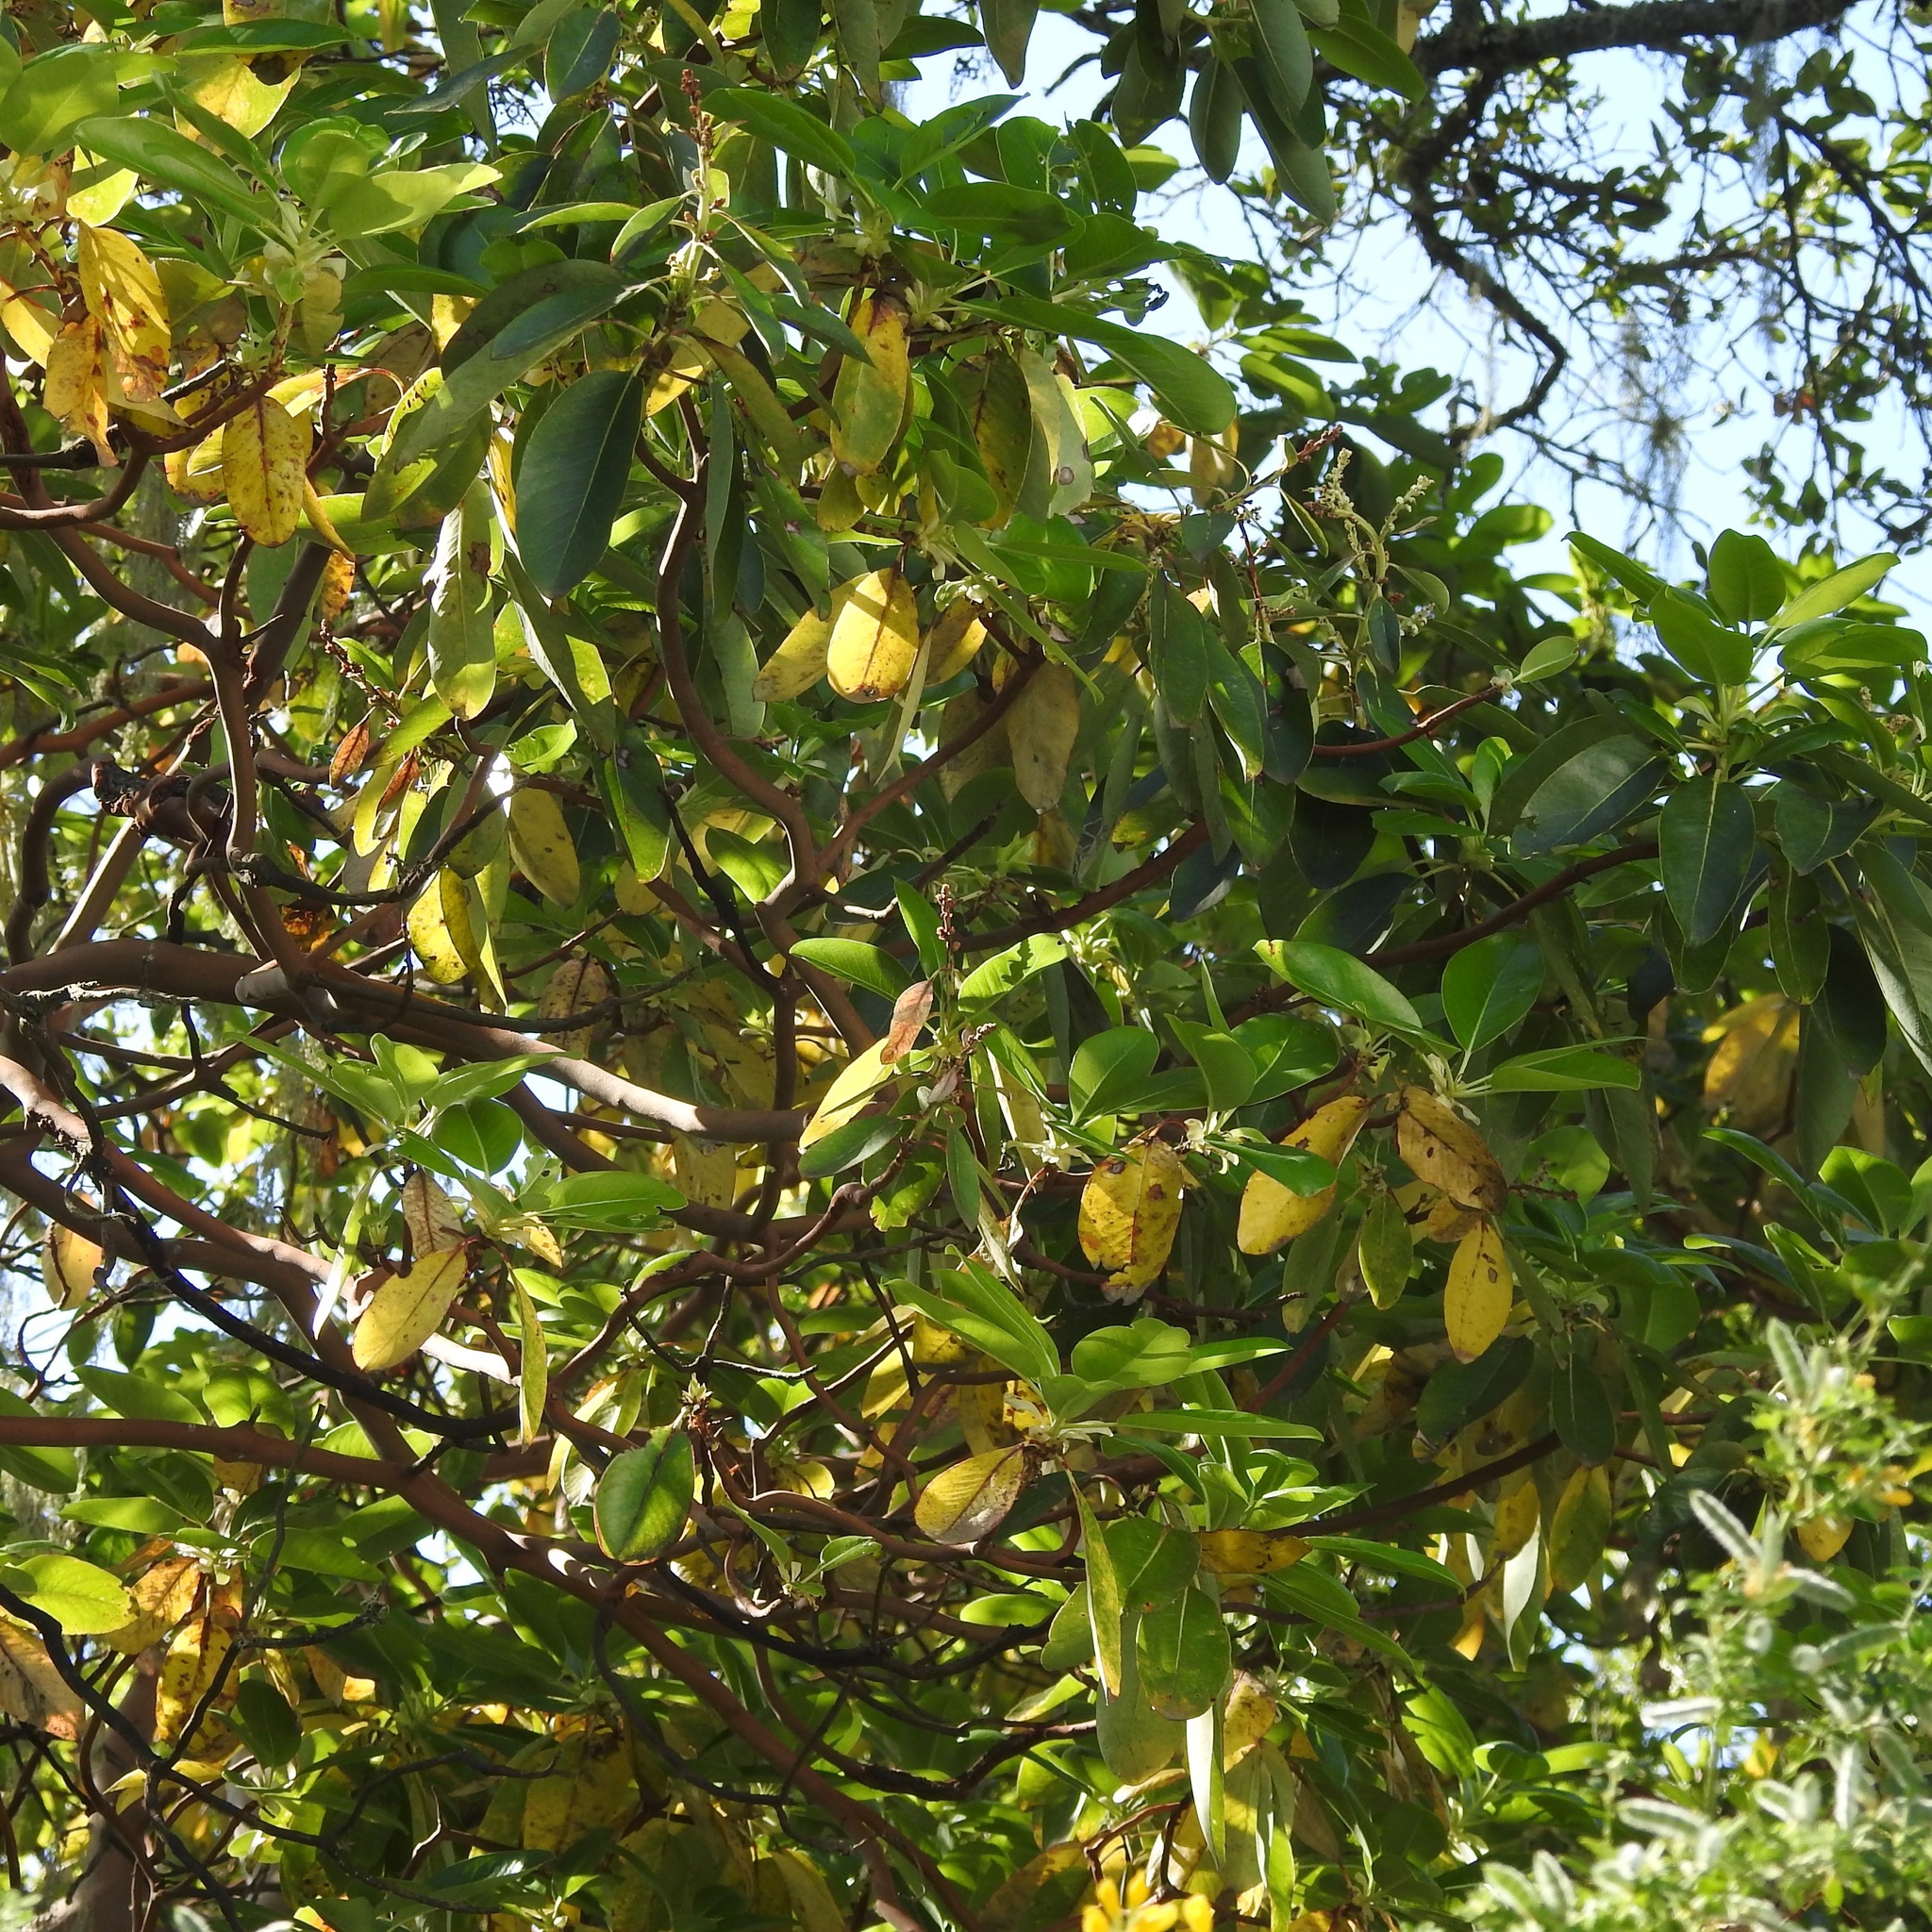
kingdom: Plantae
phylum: Tracheophyta
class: Magnoliopsida
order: Ericales
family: Ericaceae
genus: Arbutus
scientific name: Arbutus menziesii
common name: Pacific madrone
